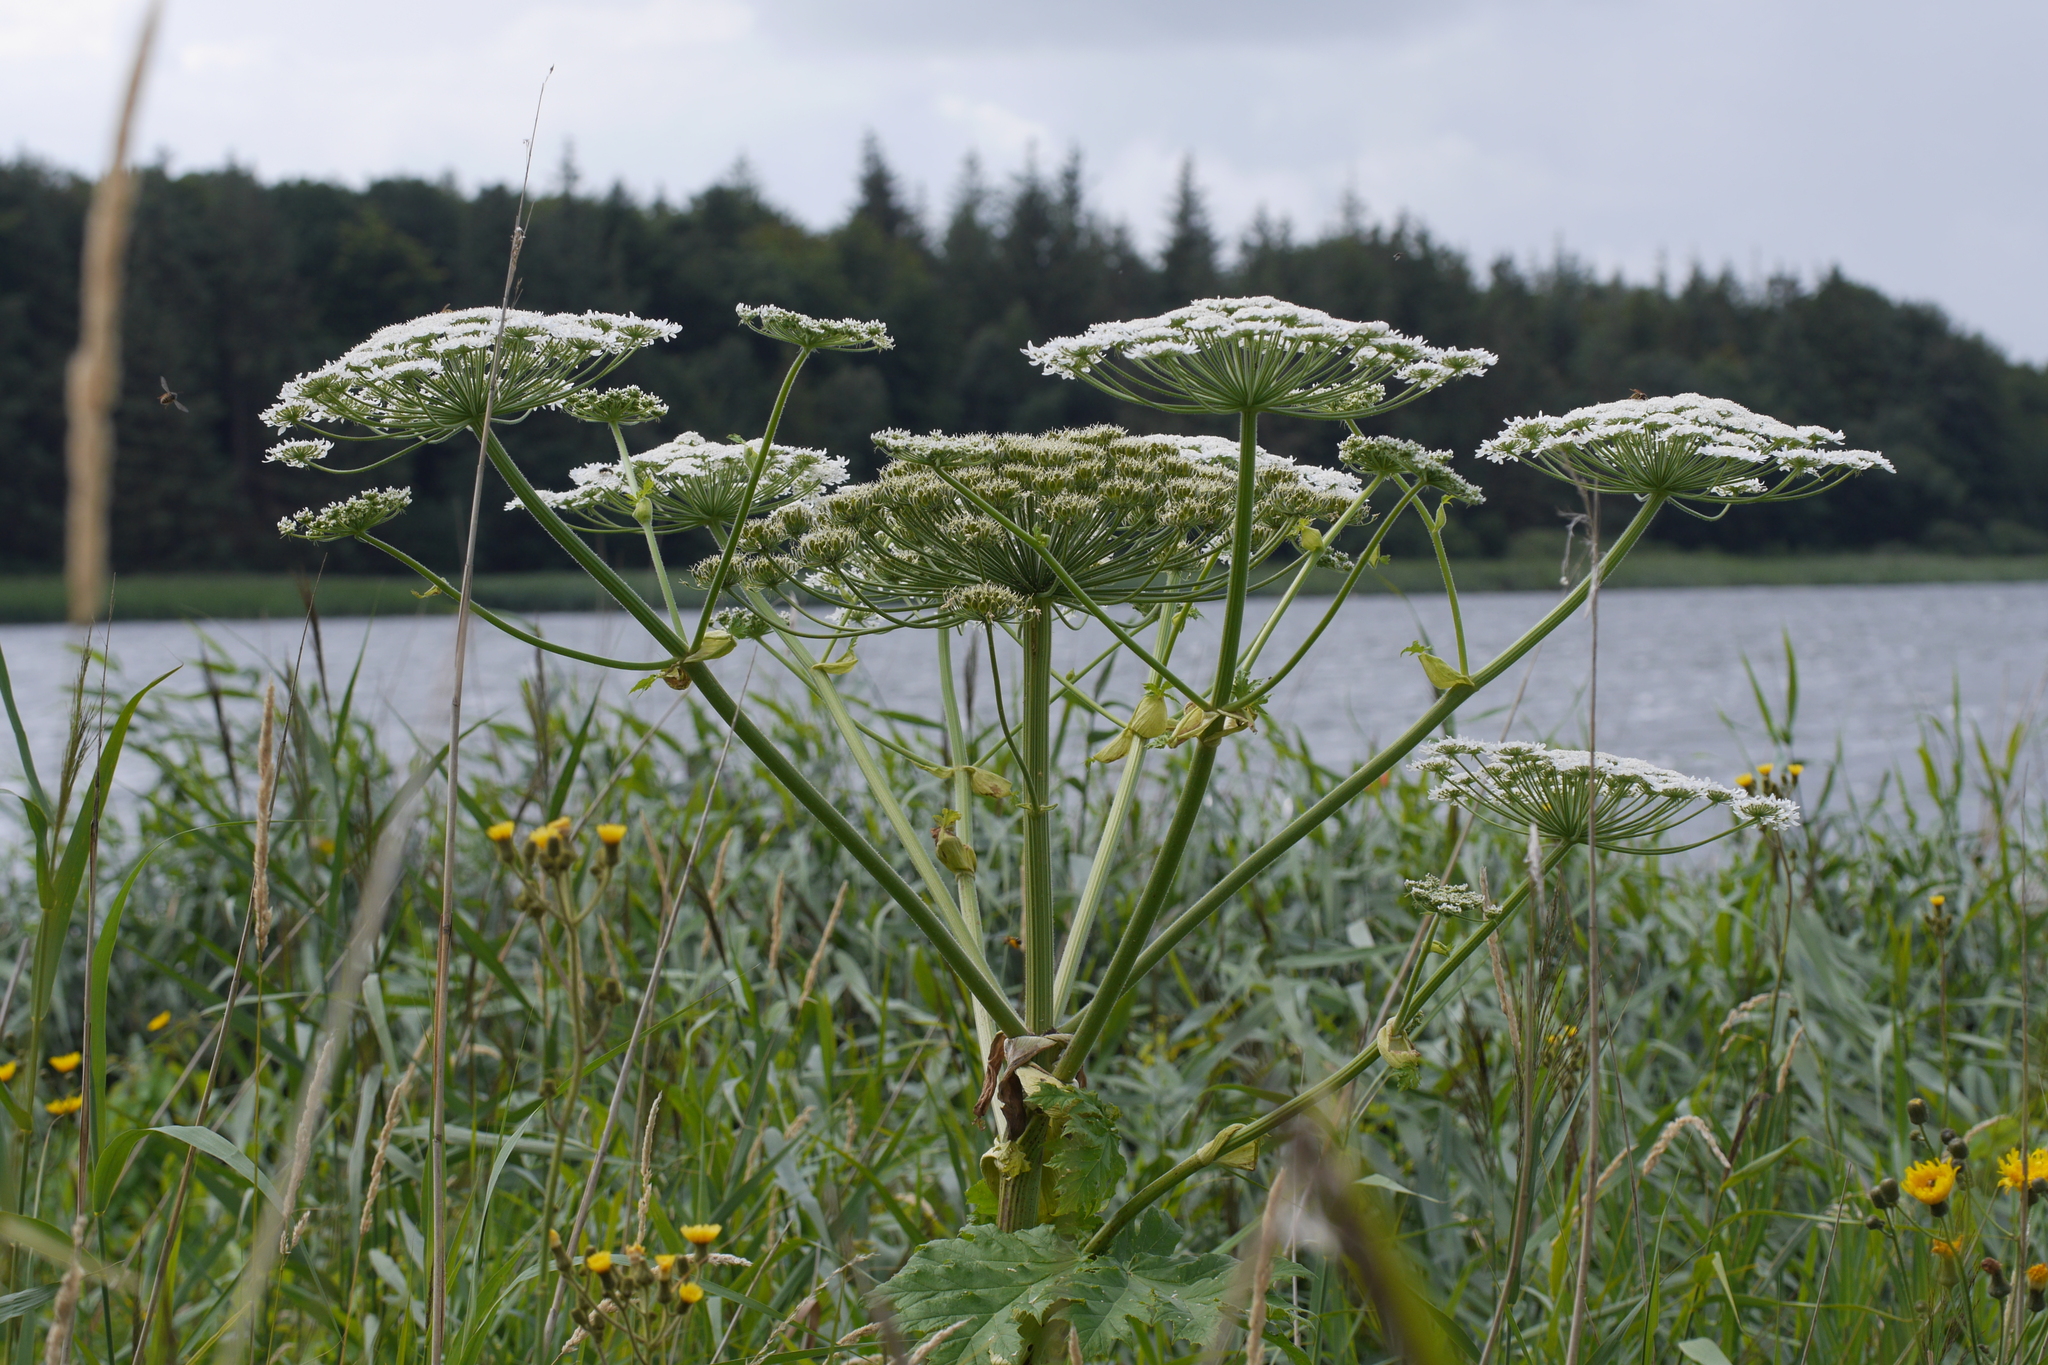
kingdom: Plantae
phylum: Tracheophyta
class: Magnoliopsida
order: Apiales
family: Apiaceae
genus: Heracleum
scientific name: Heracleum mantegazzianum
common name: Giant hogweed
